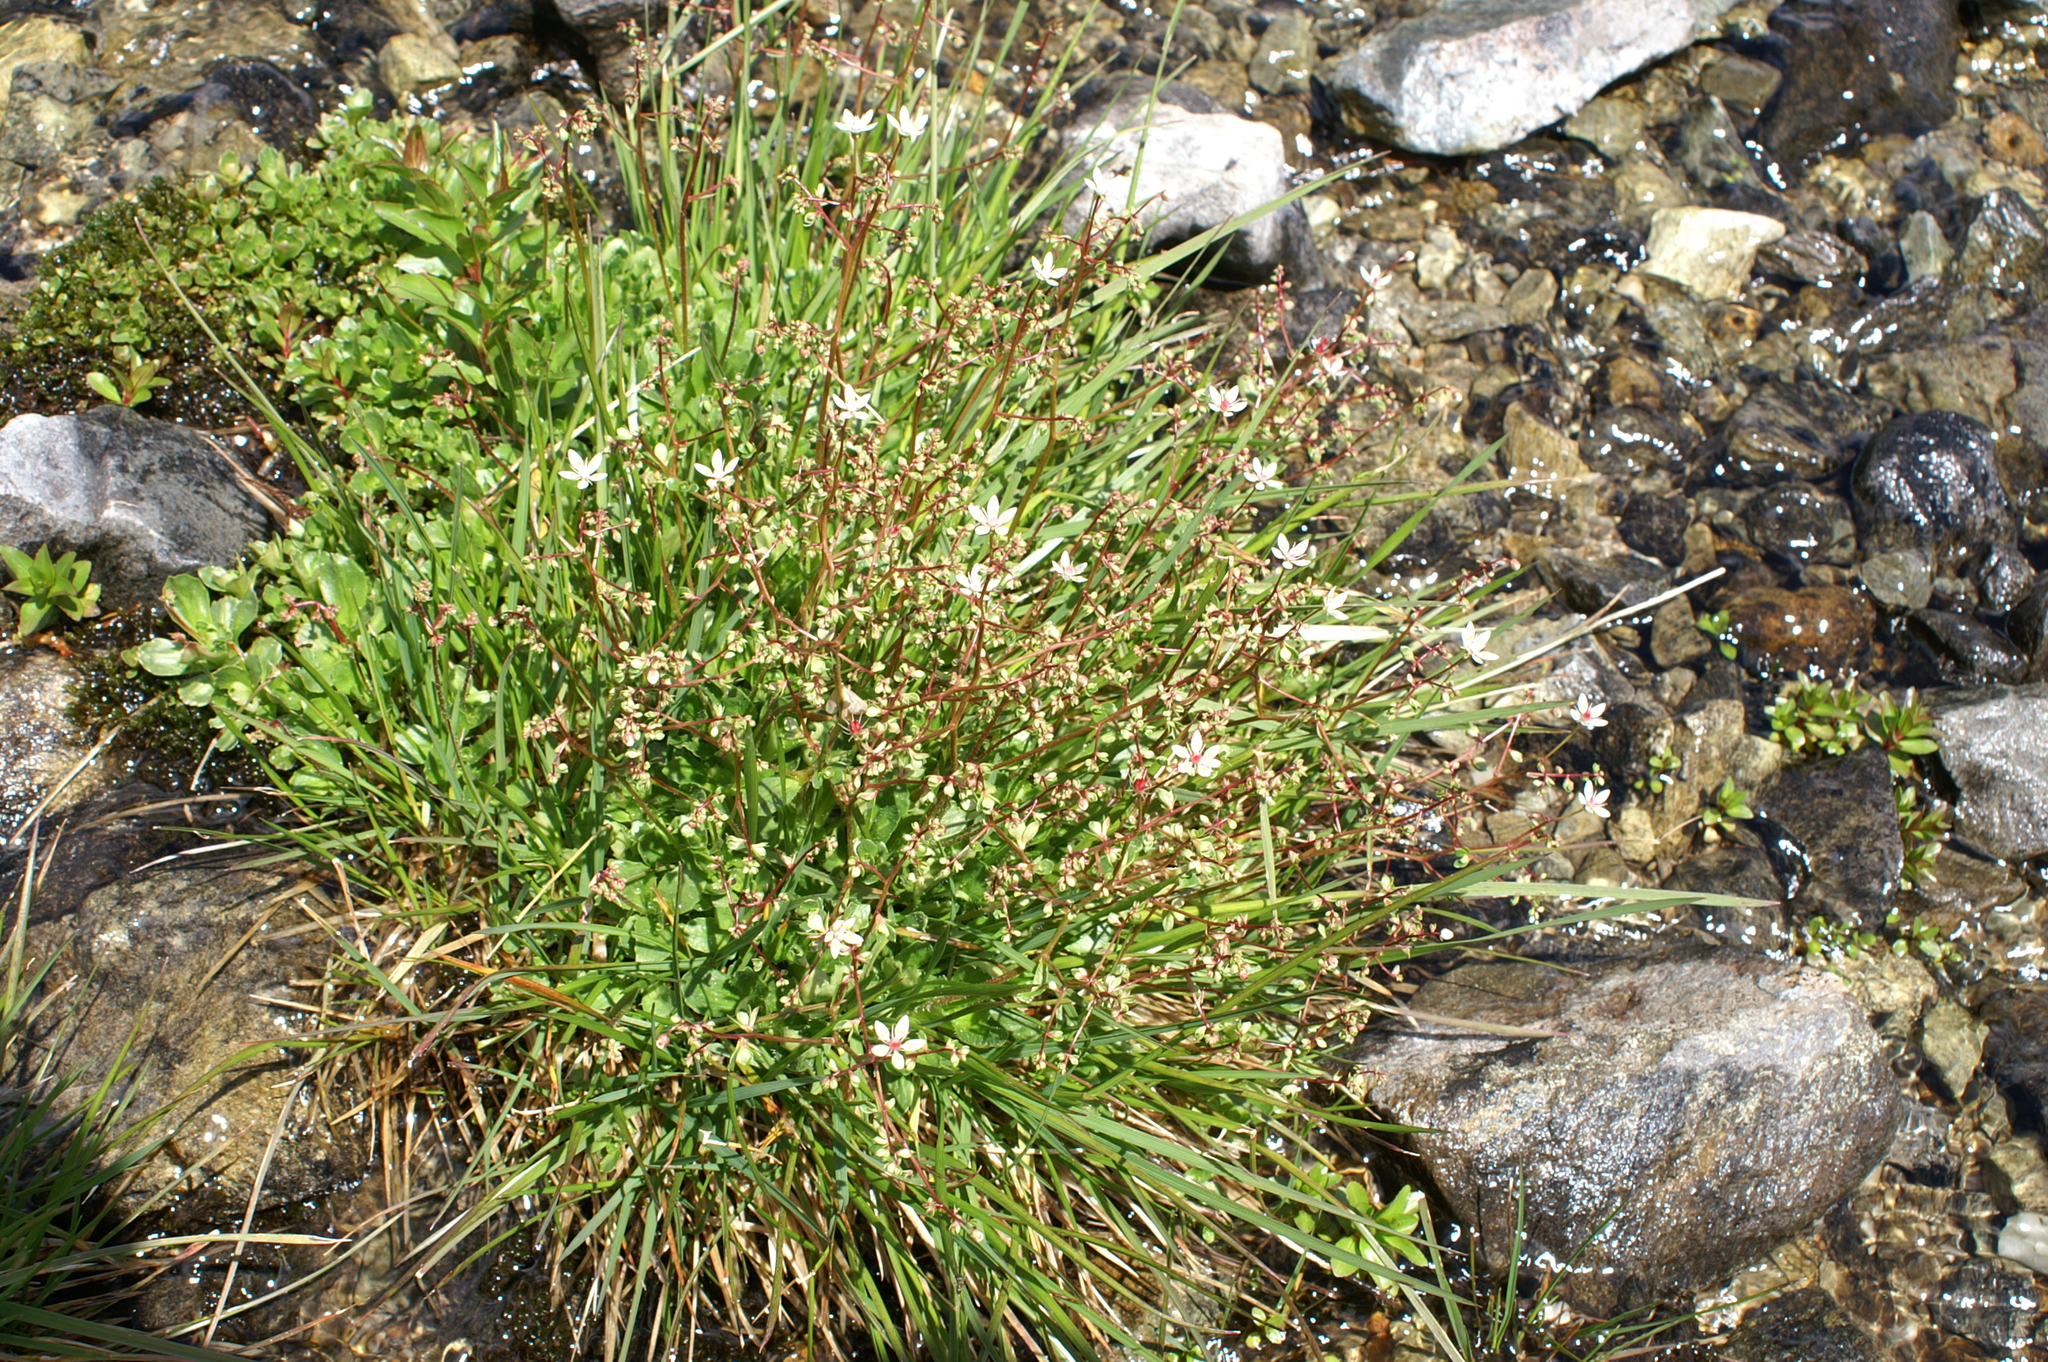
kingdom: Plantae
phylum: Tracheophyta
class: Magnoliopsida
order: Saxifragales
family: Saxifragaceae
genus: Micranthes
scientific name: Micranthes stellaris
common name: Starry saxifrage
